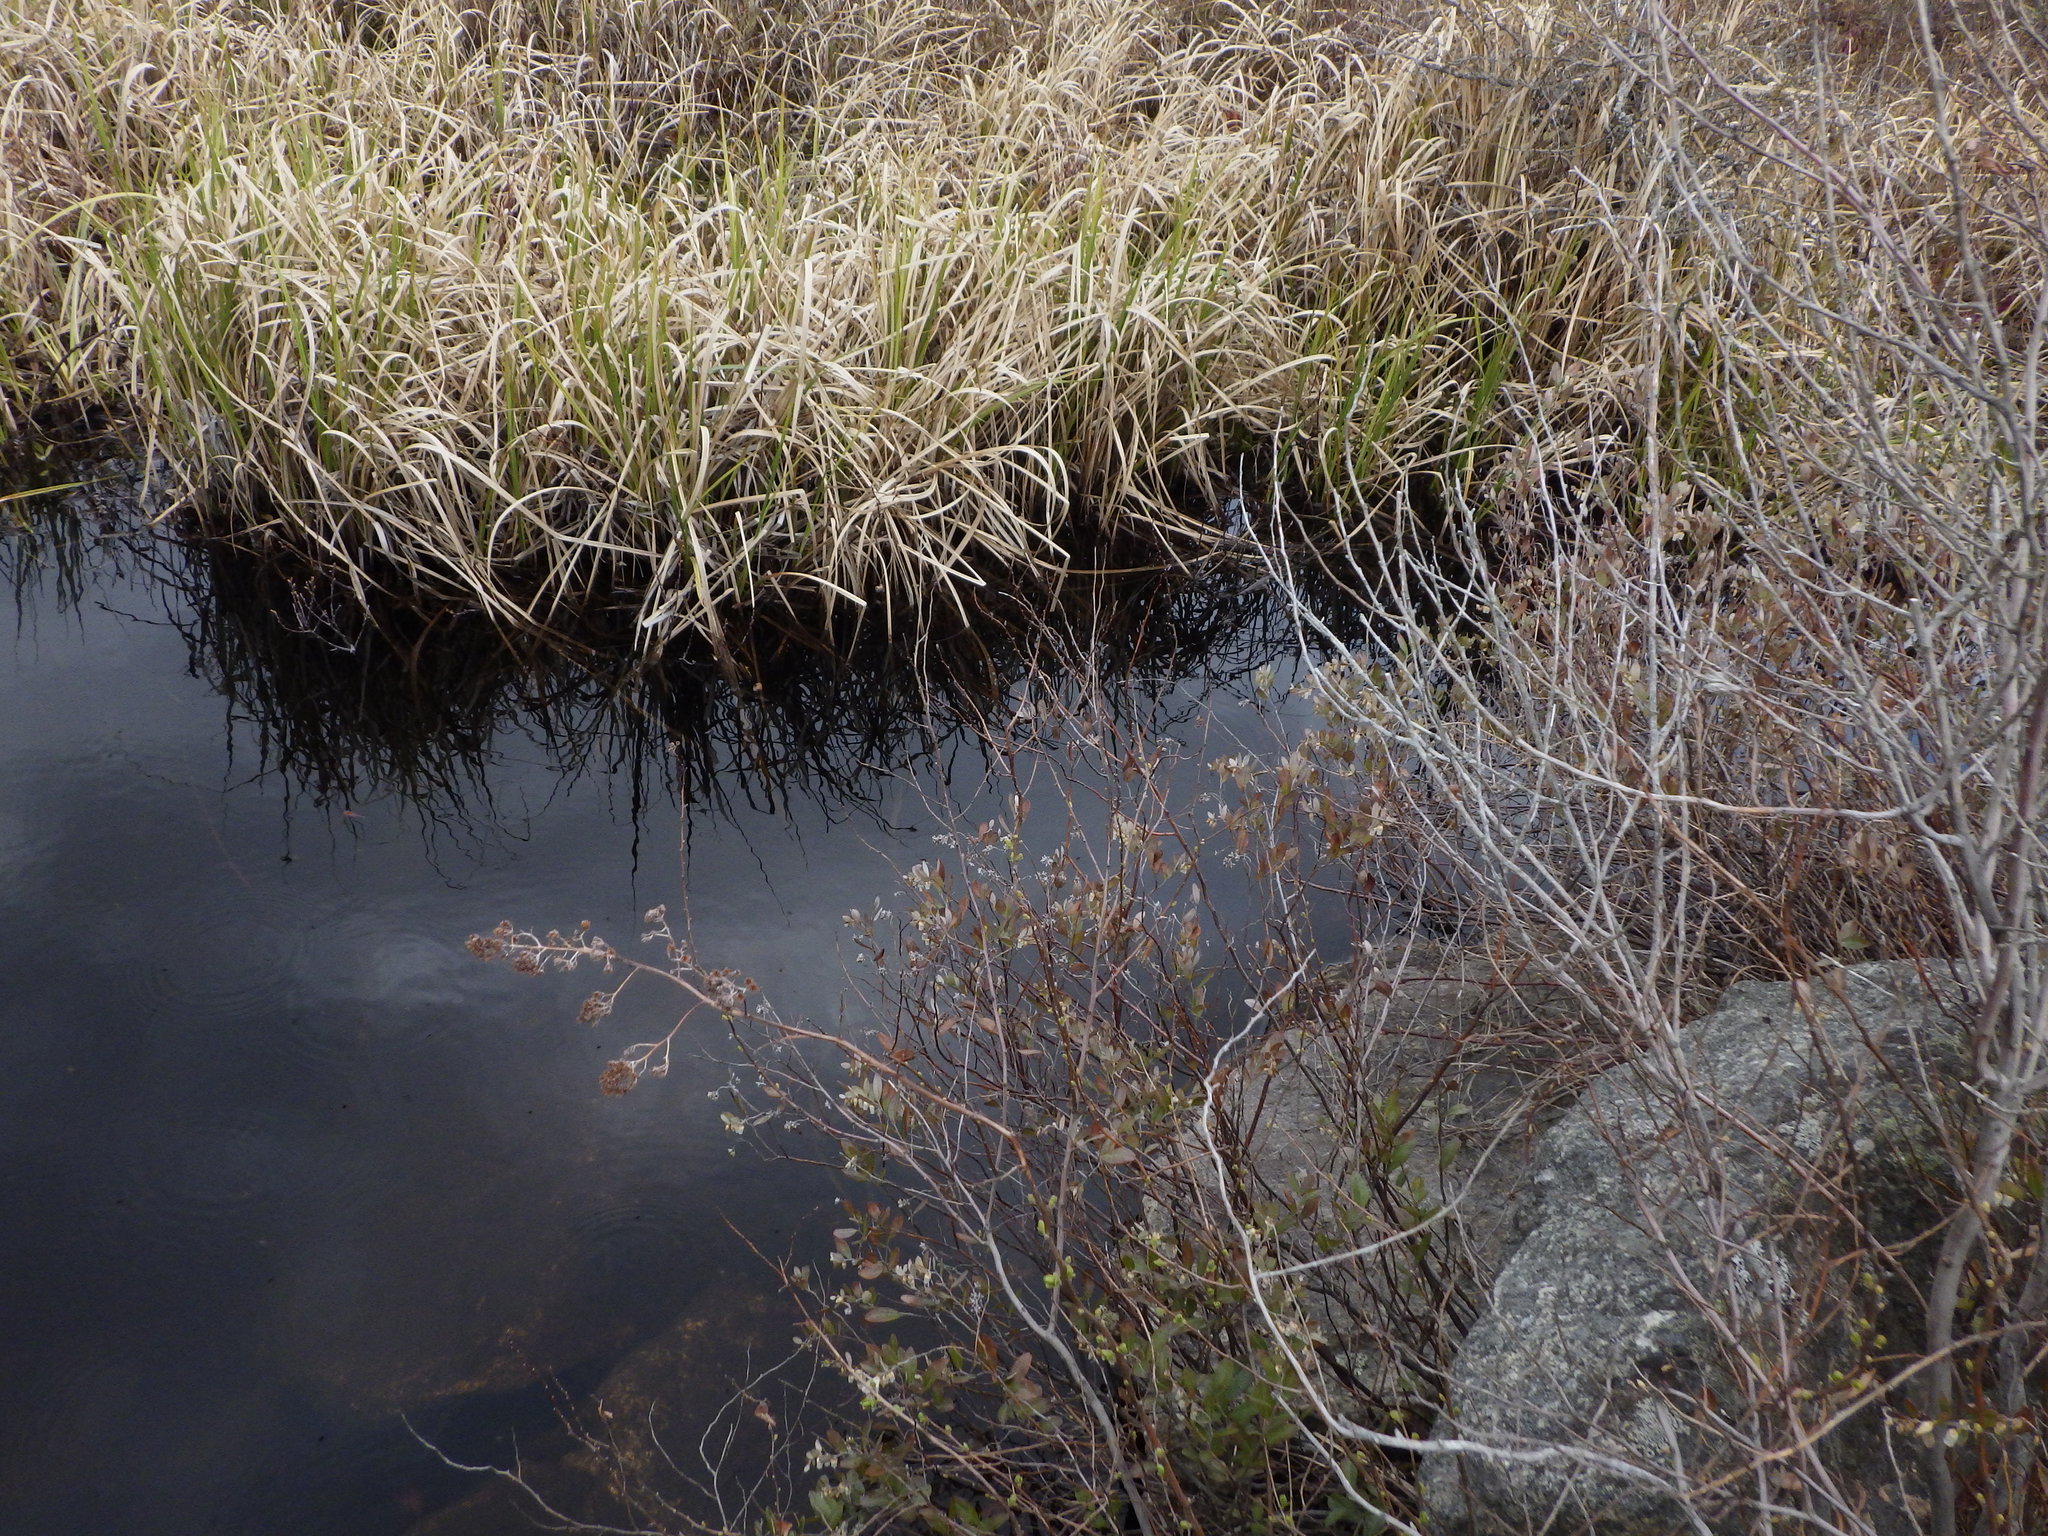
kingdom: Plantae
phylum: Tracheophyta
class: Magnoliopsida
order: Ericales
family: Ericaceae
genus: Chamaedaphne
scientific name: Chamaedaphne calyculata
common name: Leatherleaf
